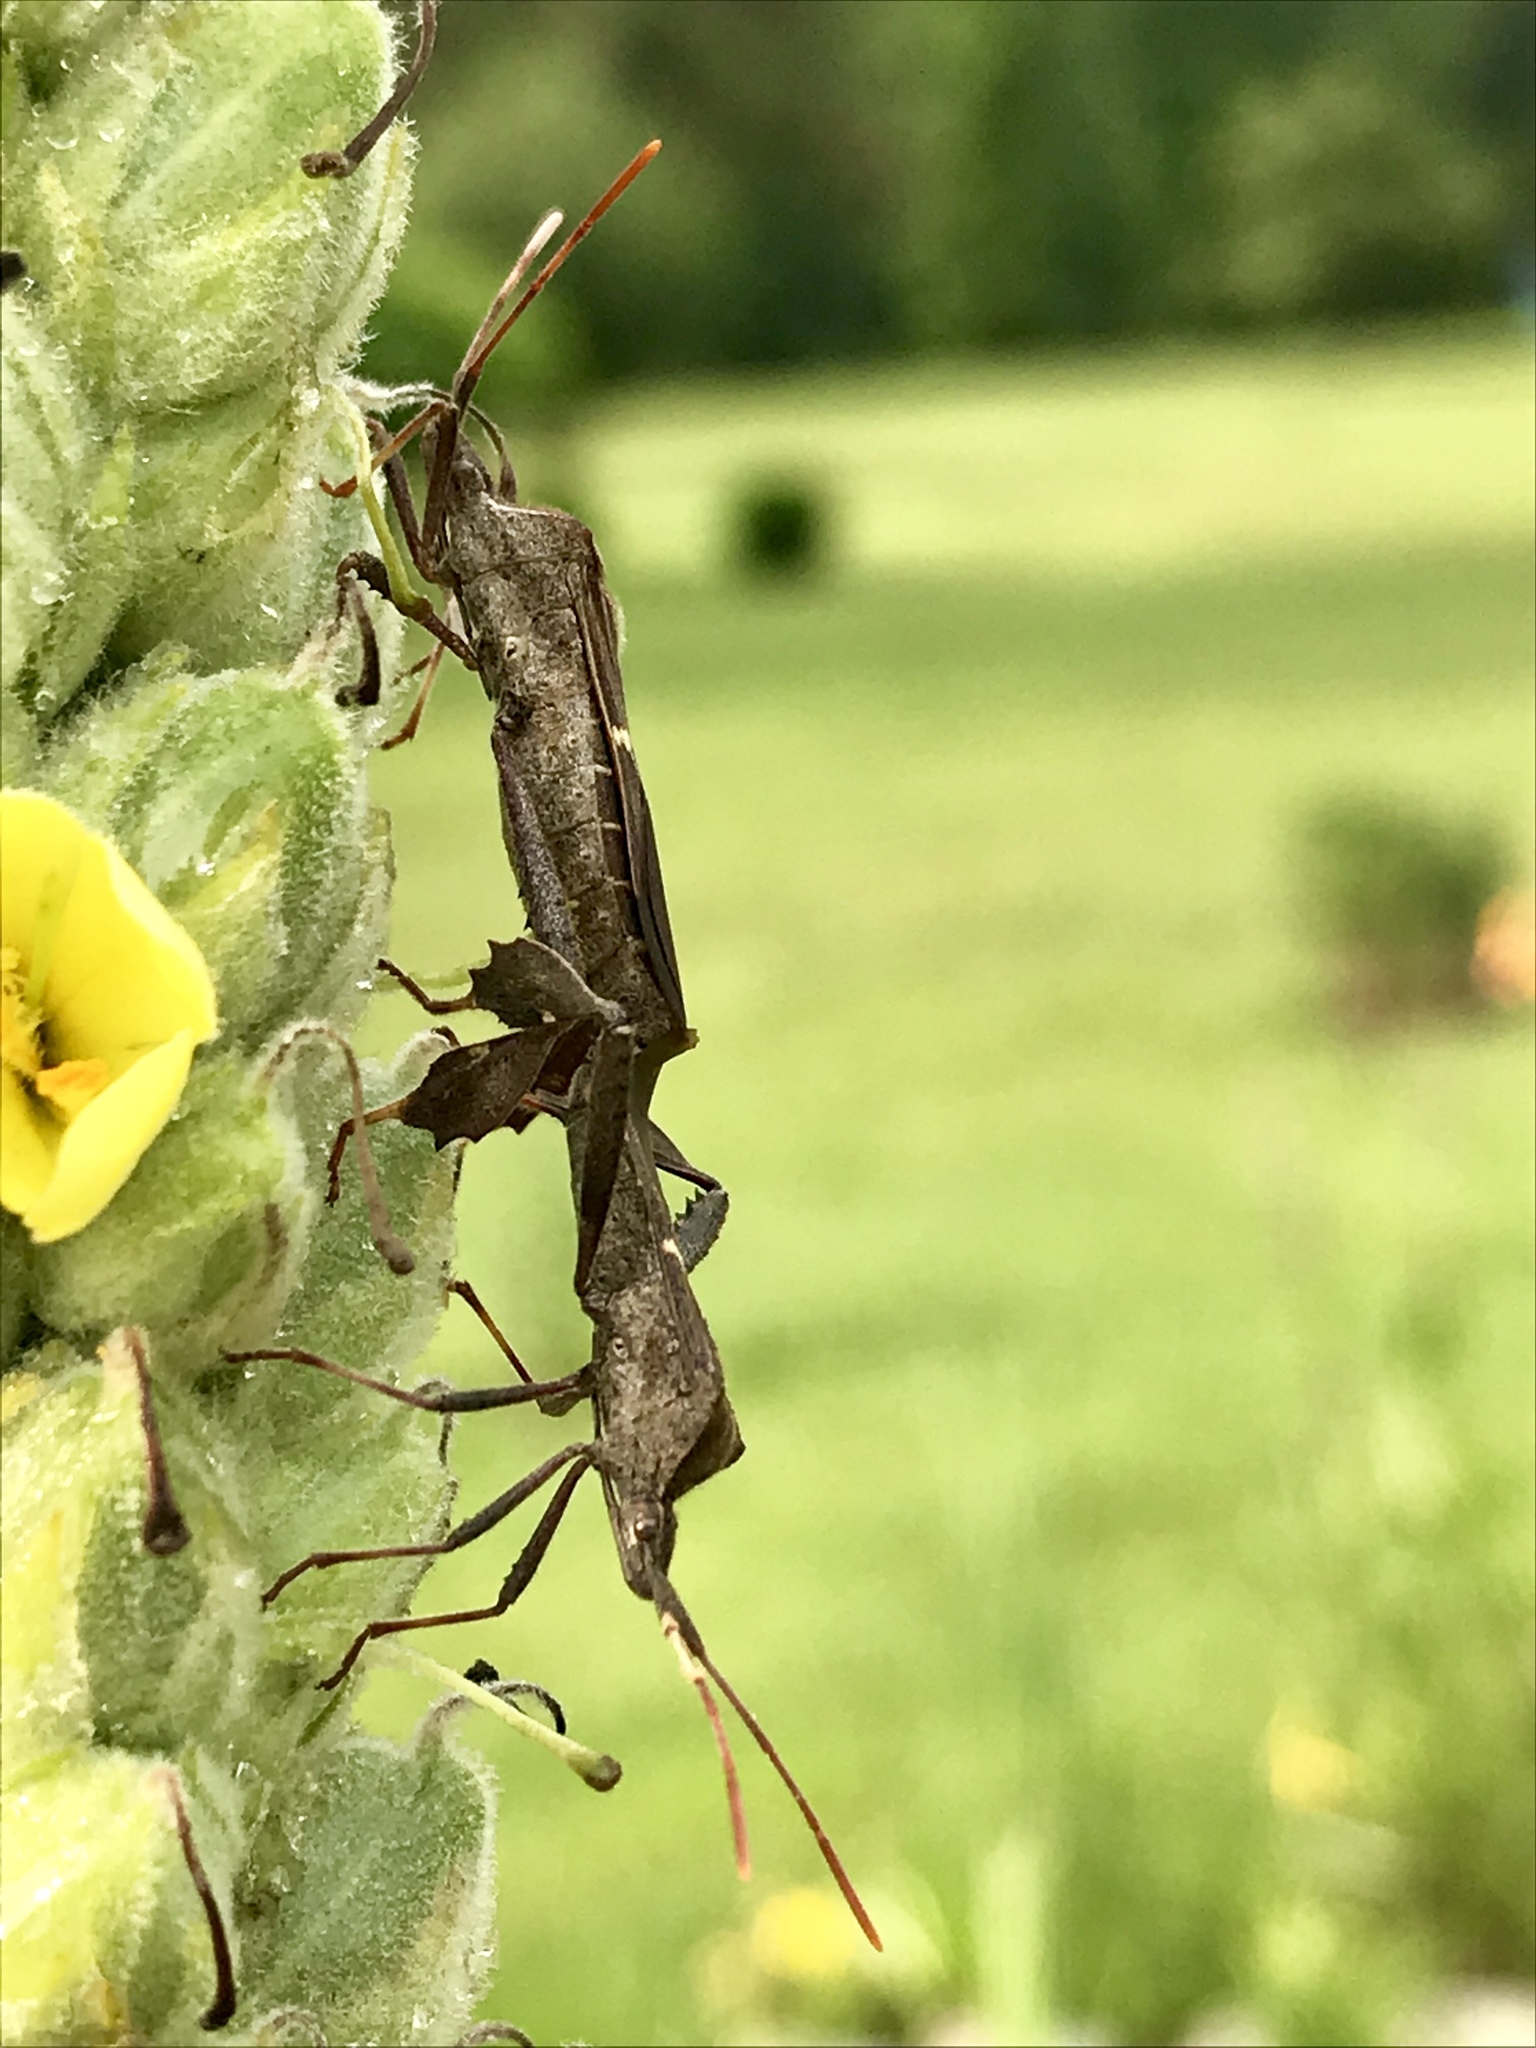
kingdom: Animalia
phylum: Arthropoda
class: Insecta
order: Hemiptera
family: Coreidae
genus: Leptoglossus
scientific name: Leptoglossus phyllopus
